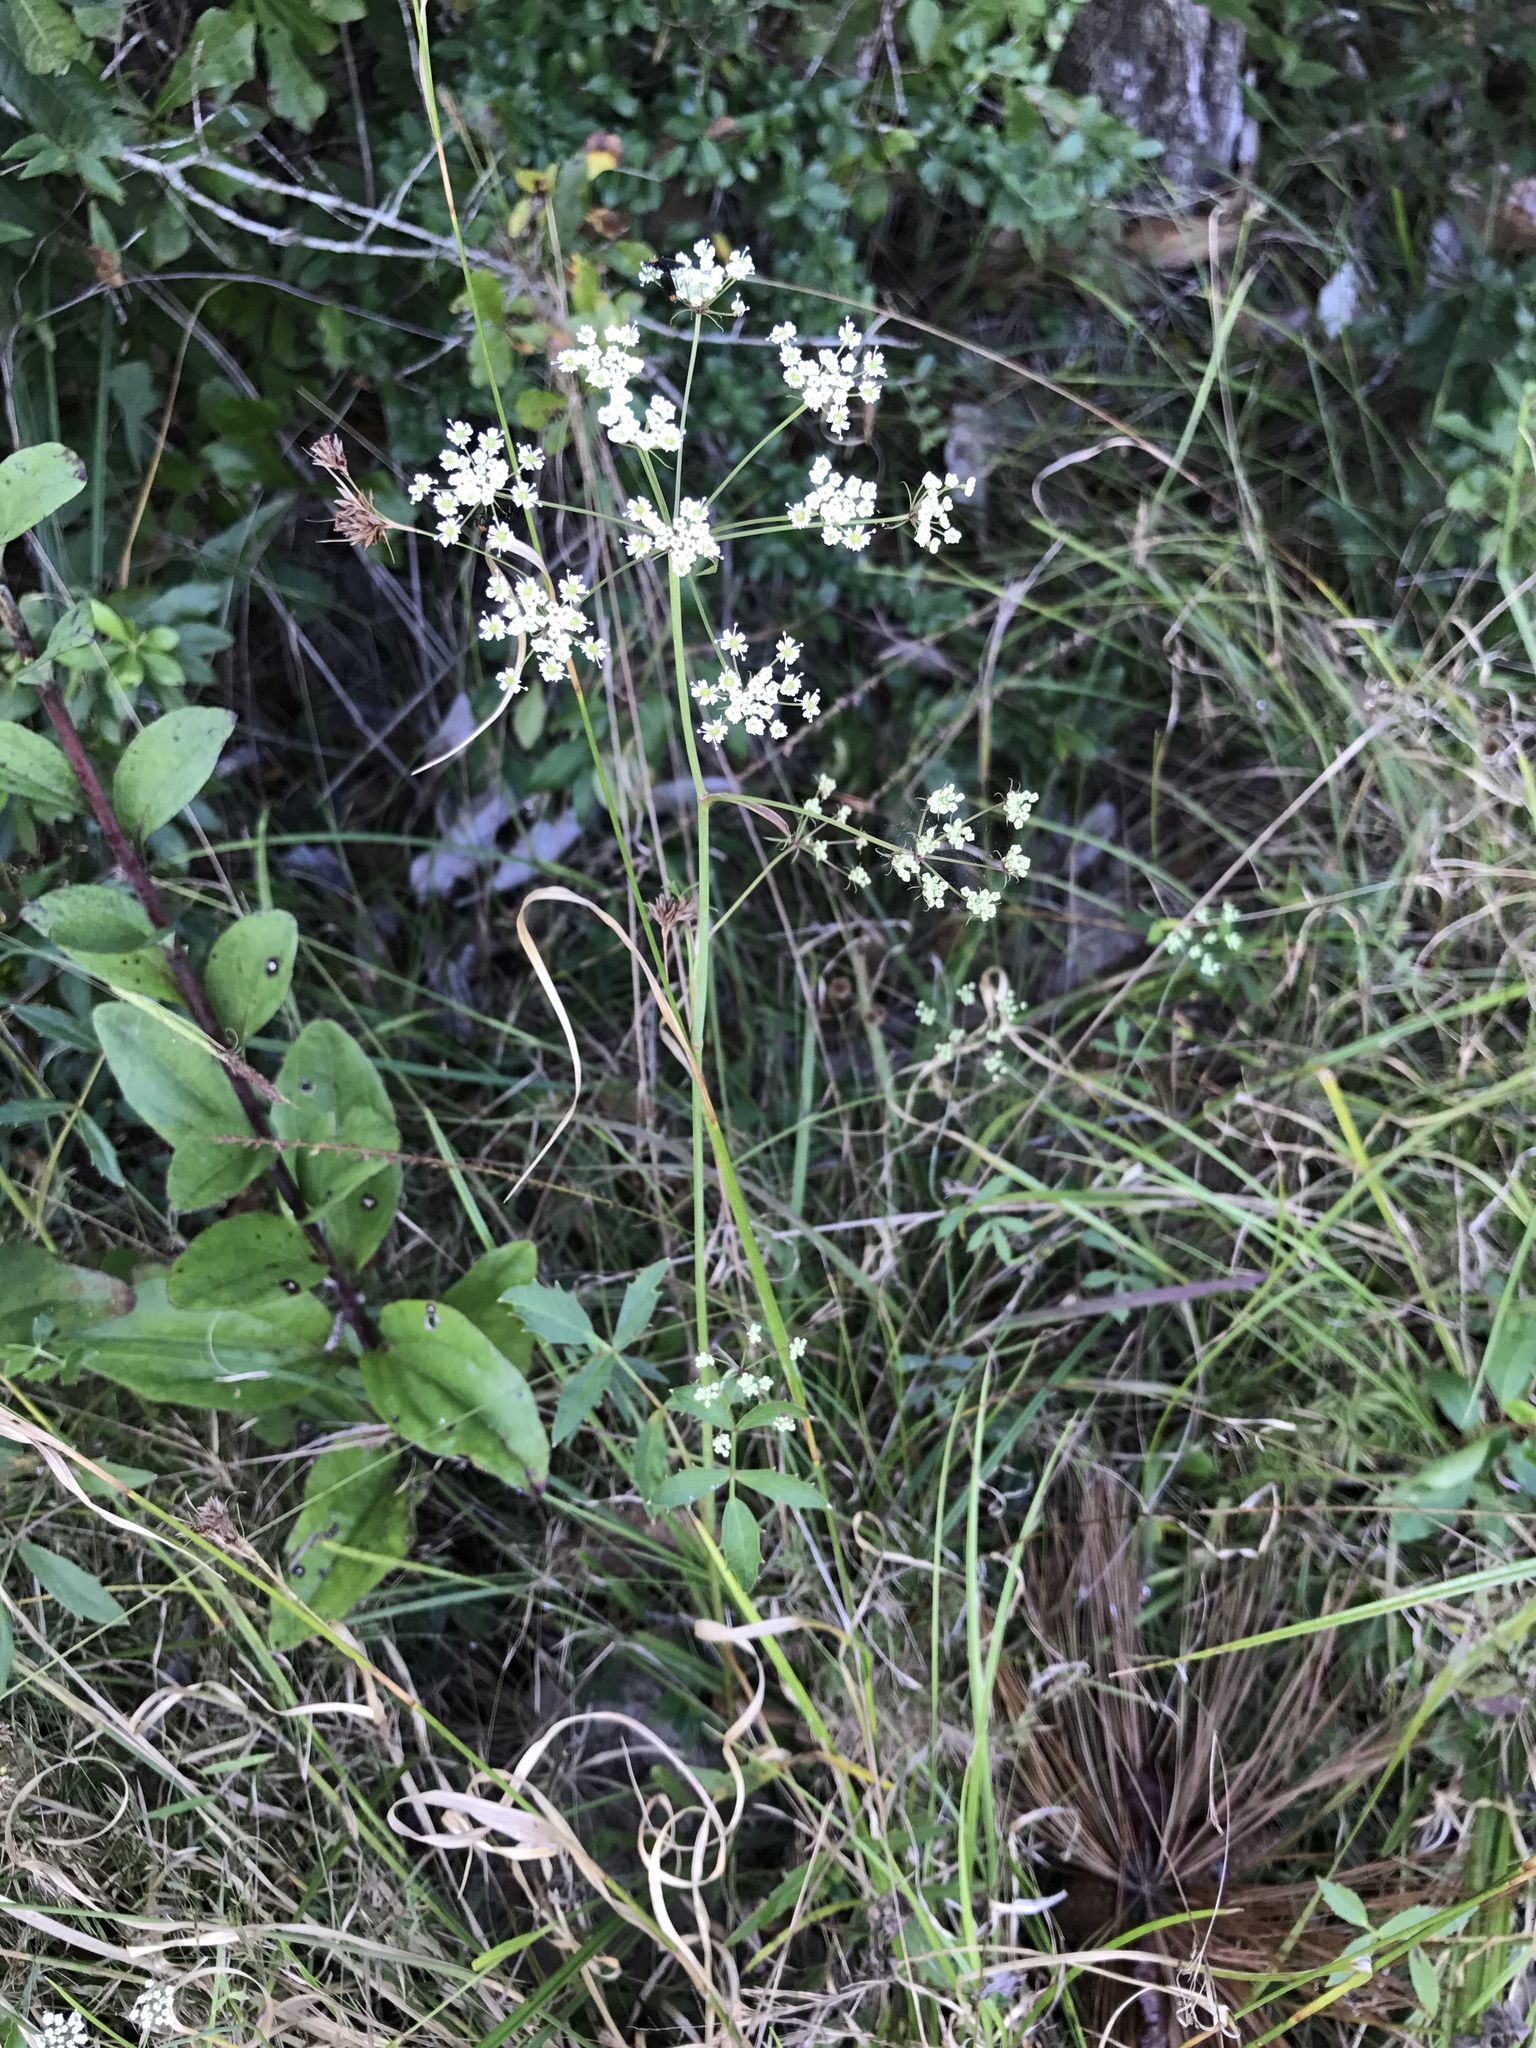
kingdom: Plantae
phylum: Tracheophyta
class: Magnoliopsida
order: Apiales
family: Apiaceae
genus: Oxypolis
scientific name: Oxypolis rigidior
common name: Cowbane
